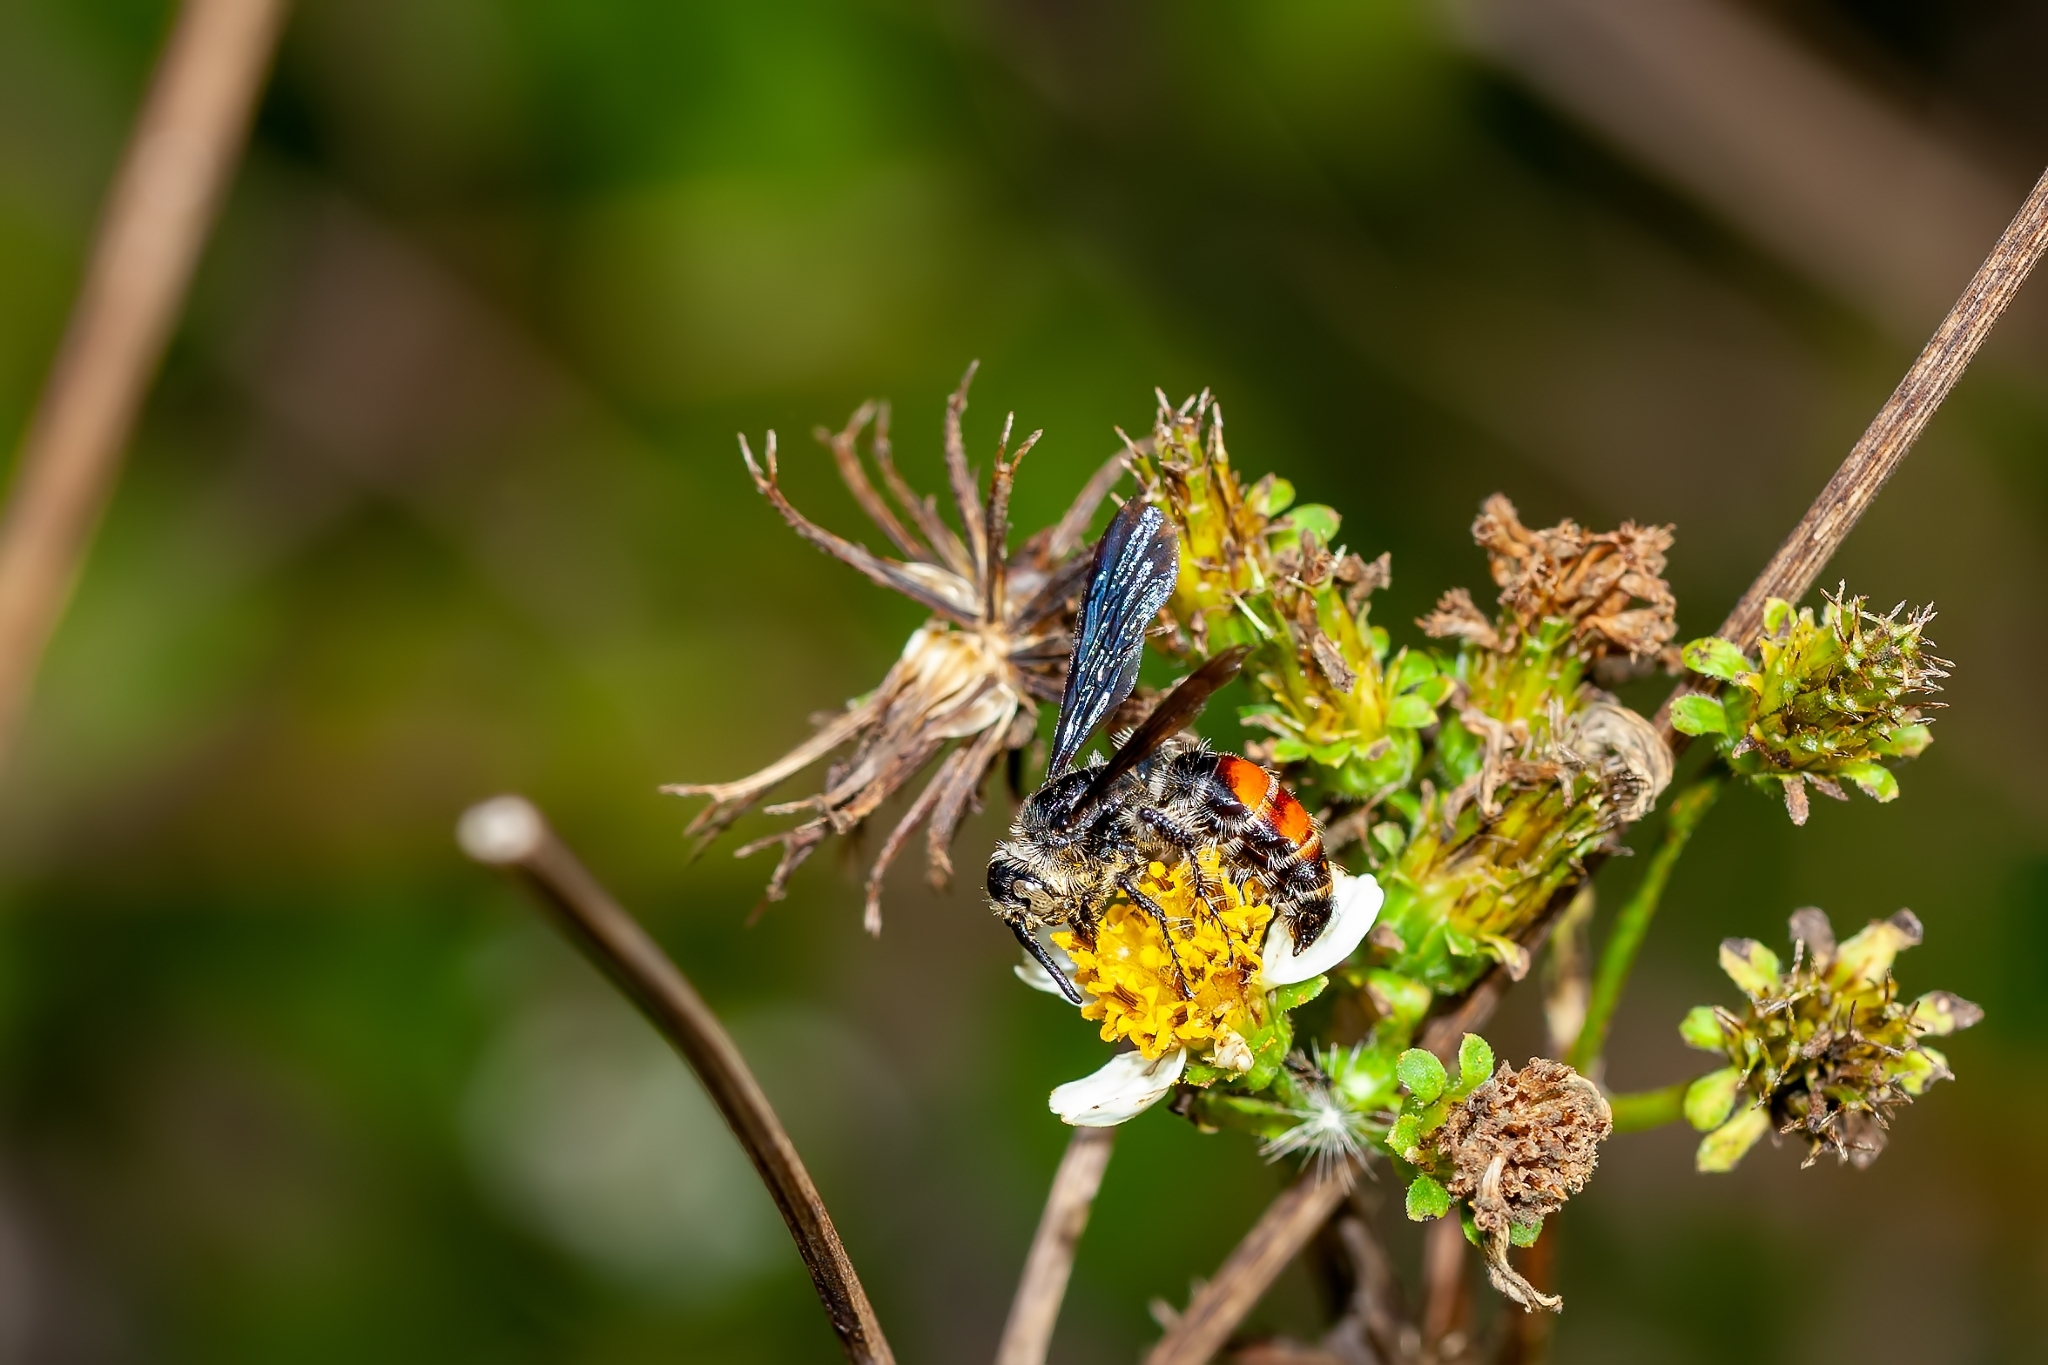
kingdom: Animalia
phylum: Arthropoda
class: Insecta
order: Hymenoptera
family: Scoliidae
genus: Dielis
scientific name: Dielis dorsata
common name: Scoliid wasp
